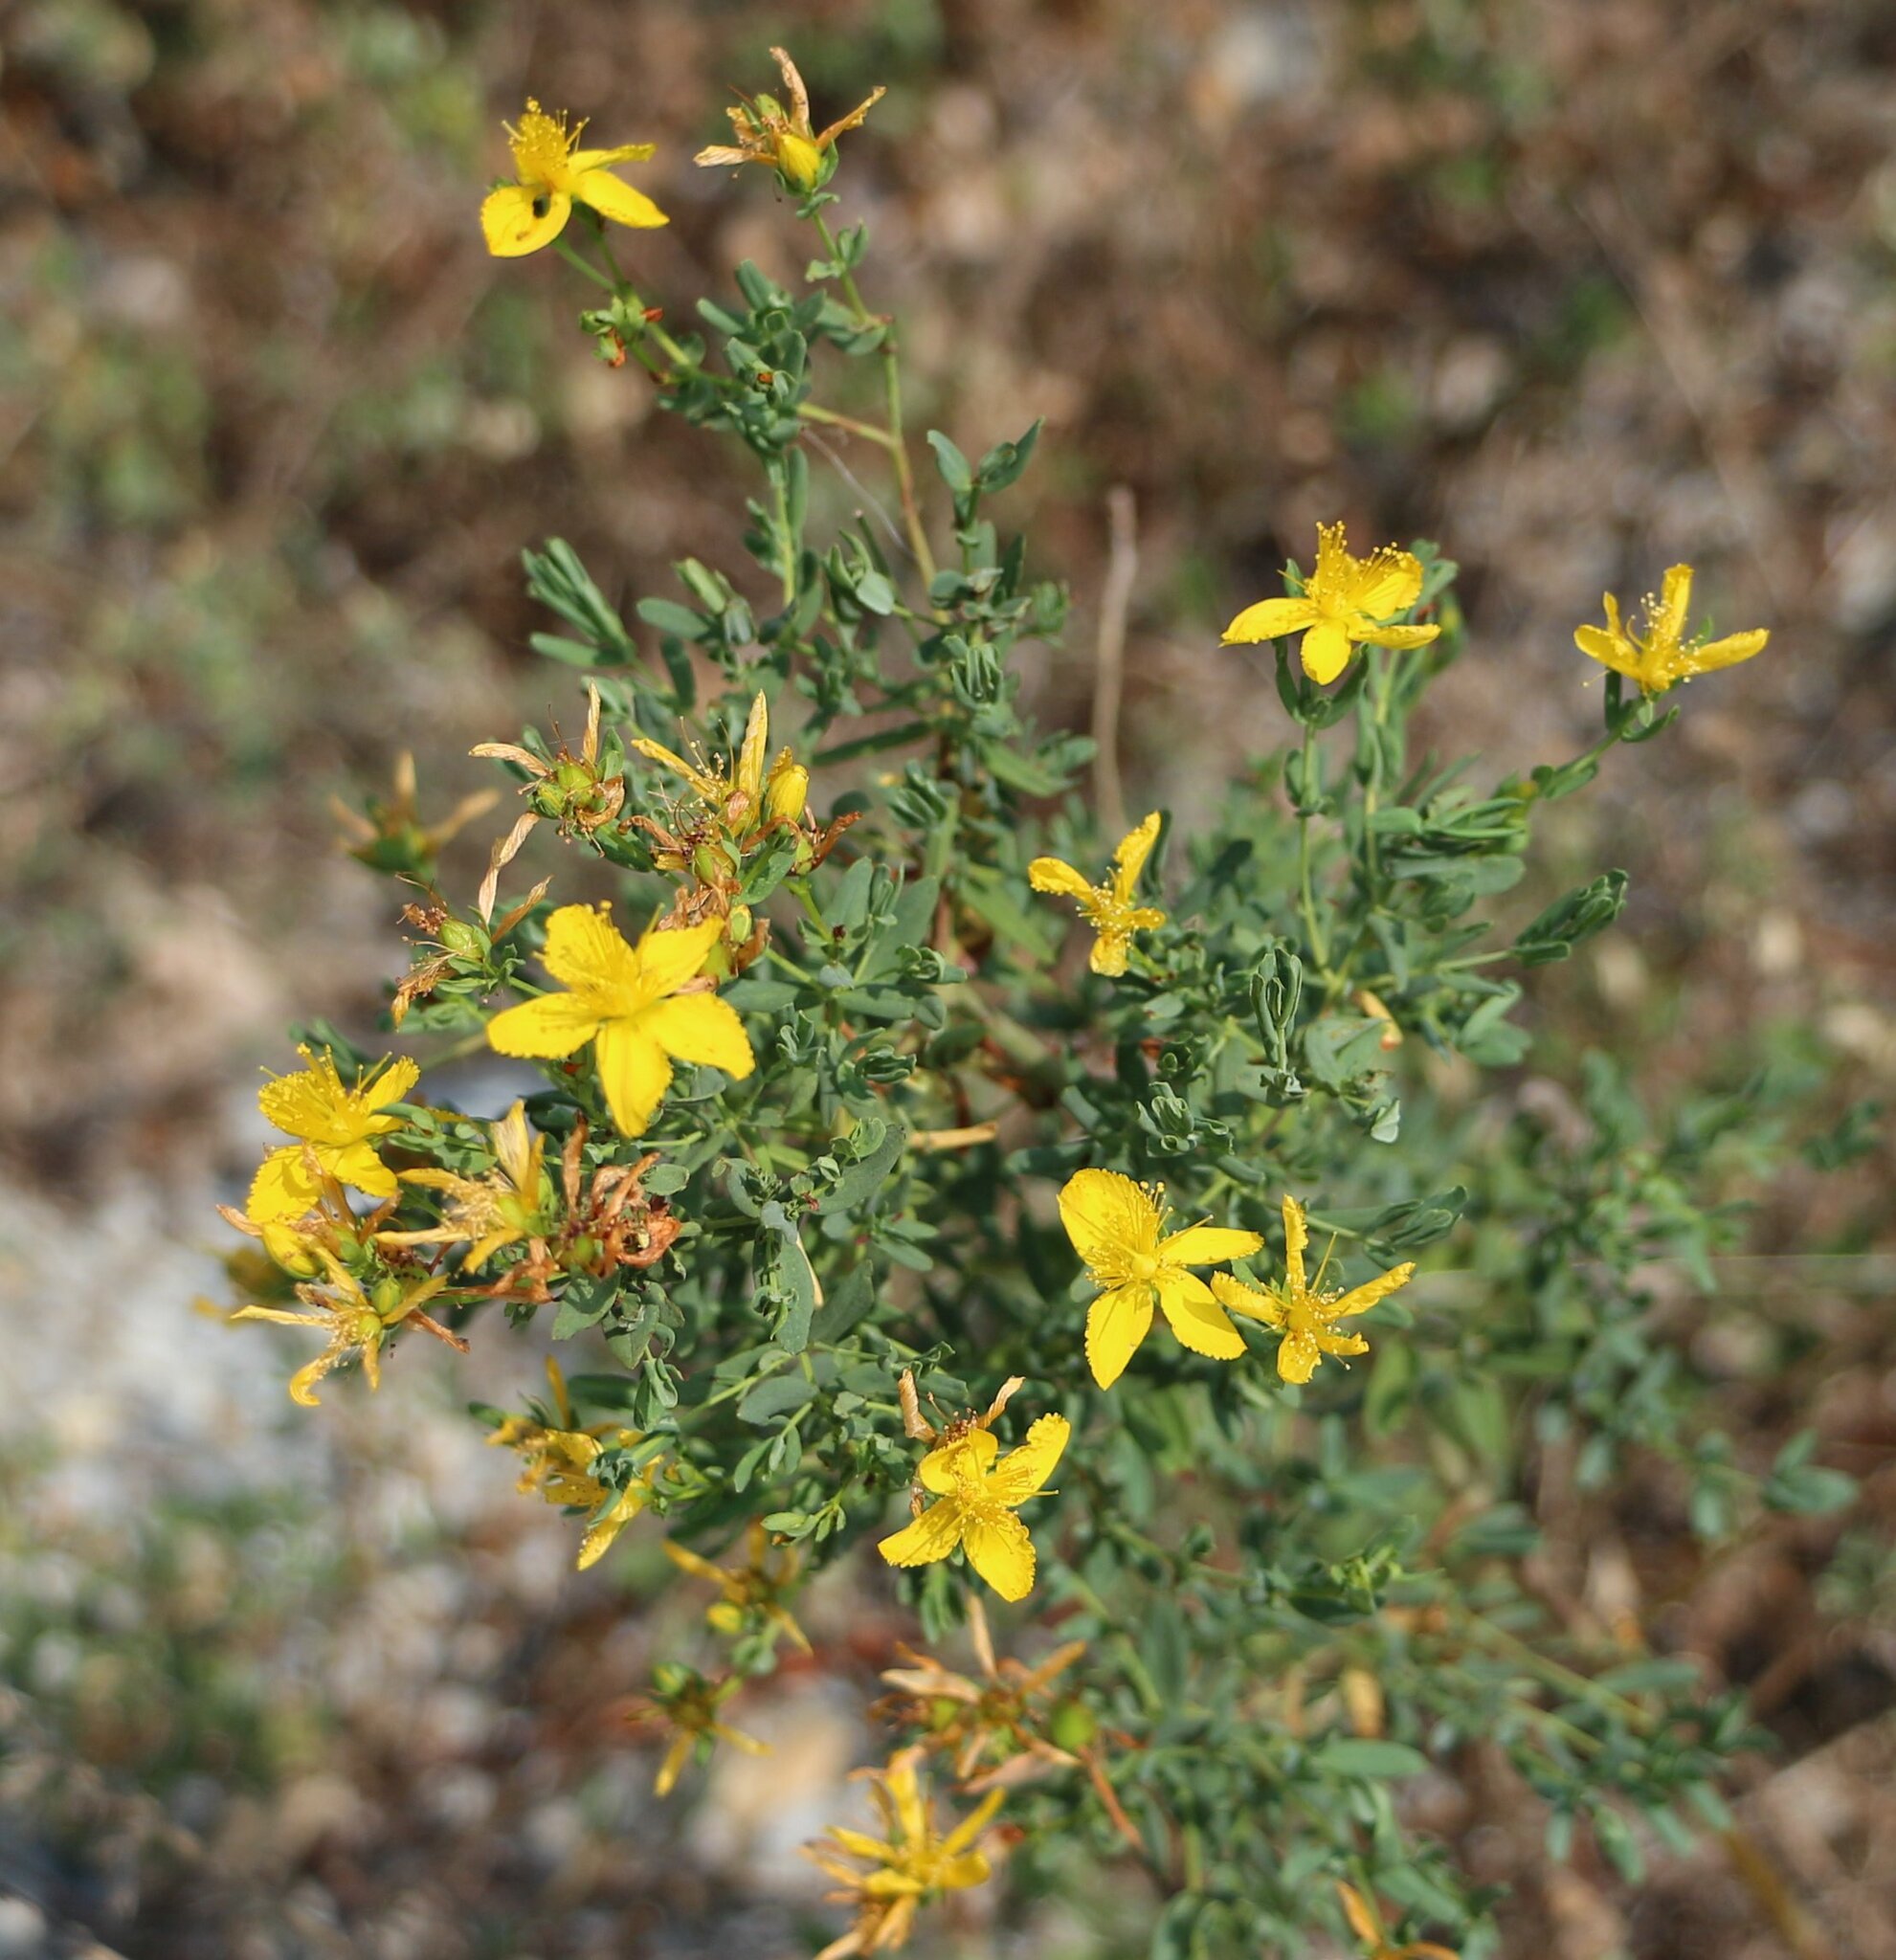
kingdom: Plantae
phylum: Tracheophyta
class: Magnoliopsida
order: Malpighiales
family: Hypericaceae
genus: Hypericum
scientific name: Hypericum perforatum
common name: Common st. johnswort
